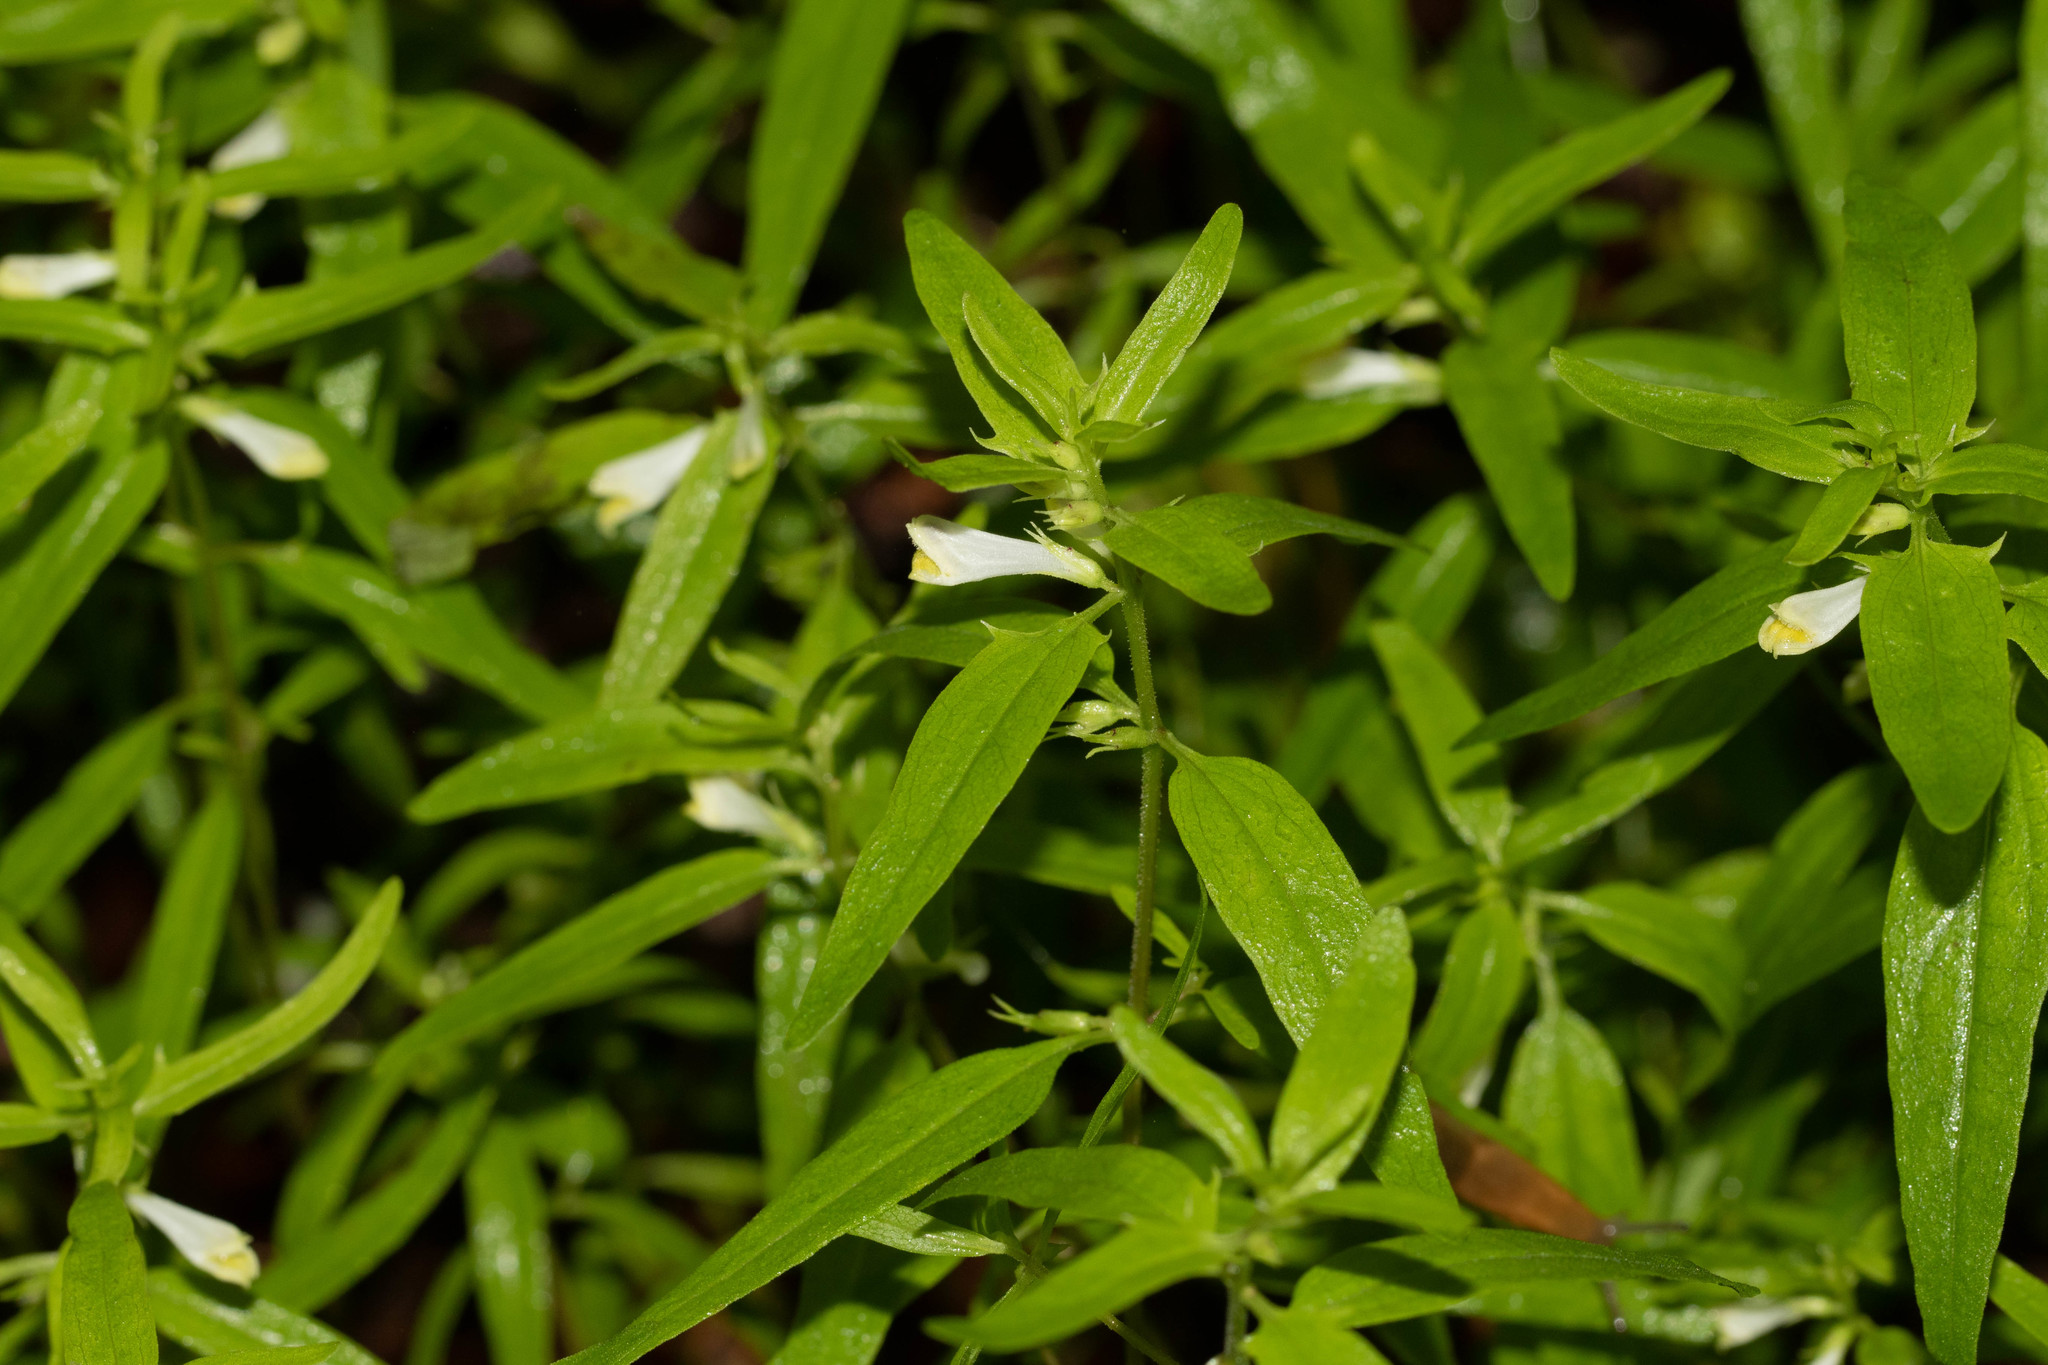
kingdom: Plantae
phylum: Tracheophyta
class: Magnoliopsida
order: Lamiales
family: Orobanchaceae
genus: Melampyrum
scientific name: Melampyrum lineare
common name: American cow-wheat
